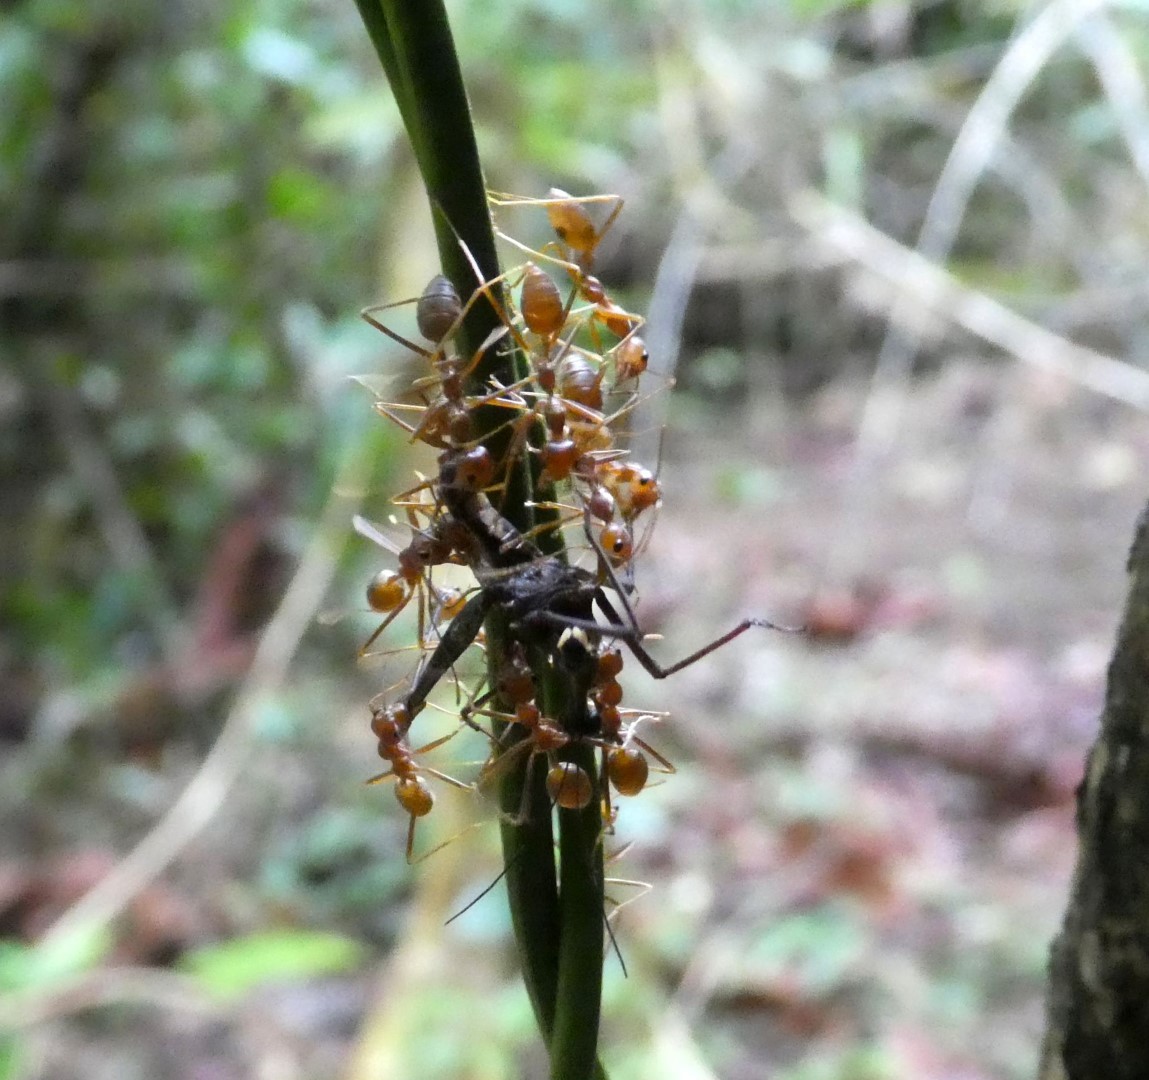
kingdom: Animalia
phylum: Arthropoda
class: Insecta
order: Hymenoptera
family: Formicidae
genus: Oecophylla
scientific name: Oecophylla smaragdina
